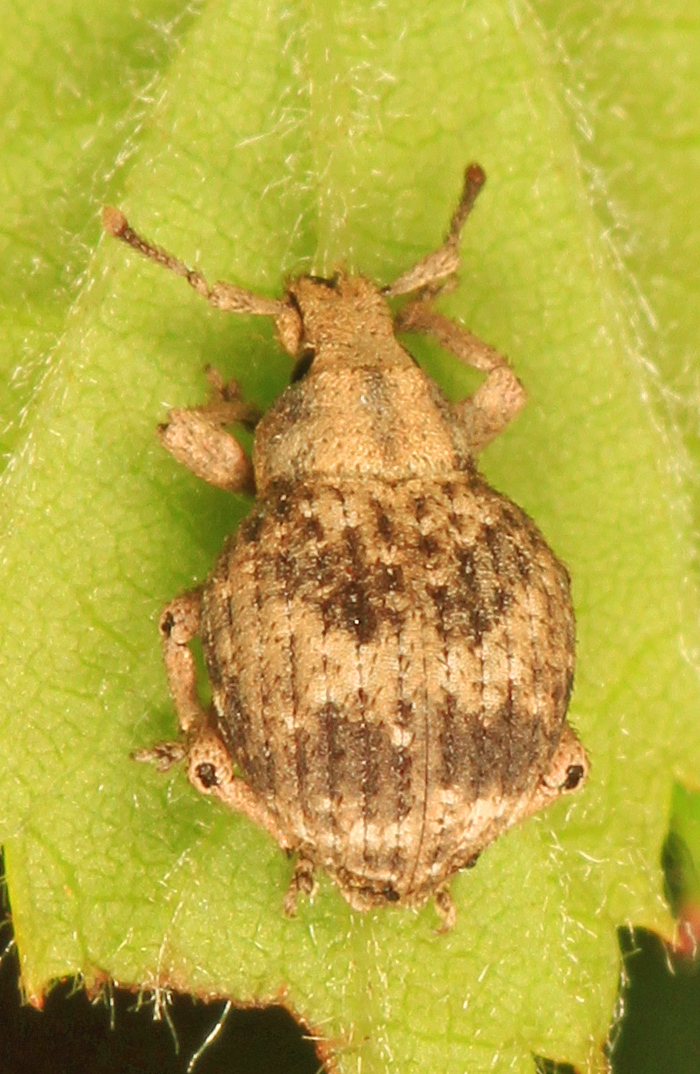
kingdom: Animalia
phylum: Arthropoda
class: Insecta
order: Coleoptera
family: Curculionidae
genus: Pseudocneorhinus
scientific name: Pseudocneorhinus bifasciatus
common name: Two-banded japanese weevil
